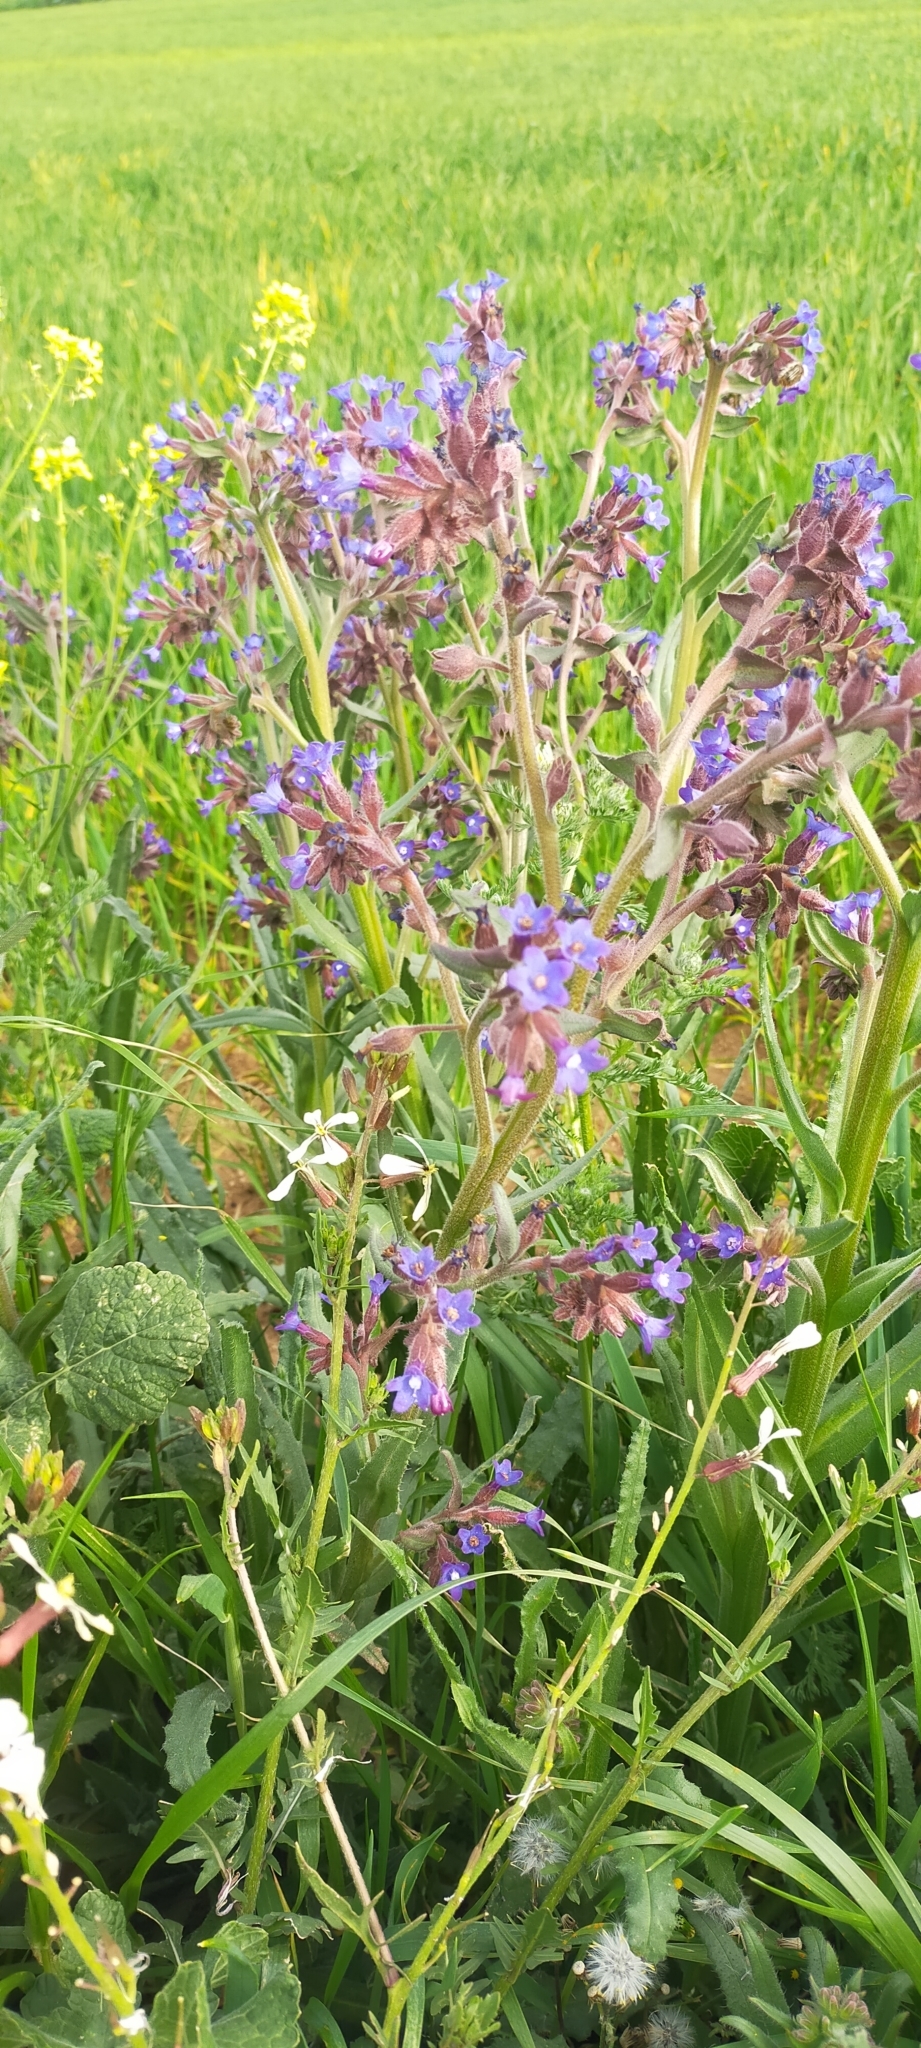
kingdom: Plantae
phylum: Tracheophyta
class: Magnoliopsida
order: Boraginales
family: Boraginaceae
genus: Anchusa
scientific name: Anchusa undulata
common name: Undulate alkanet
